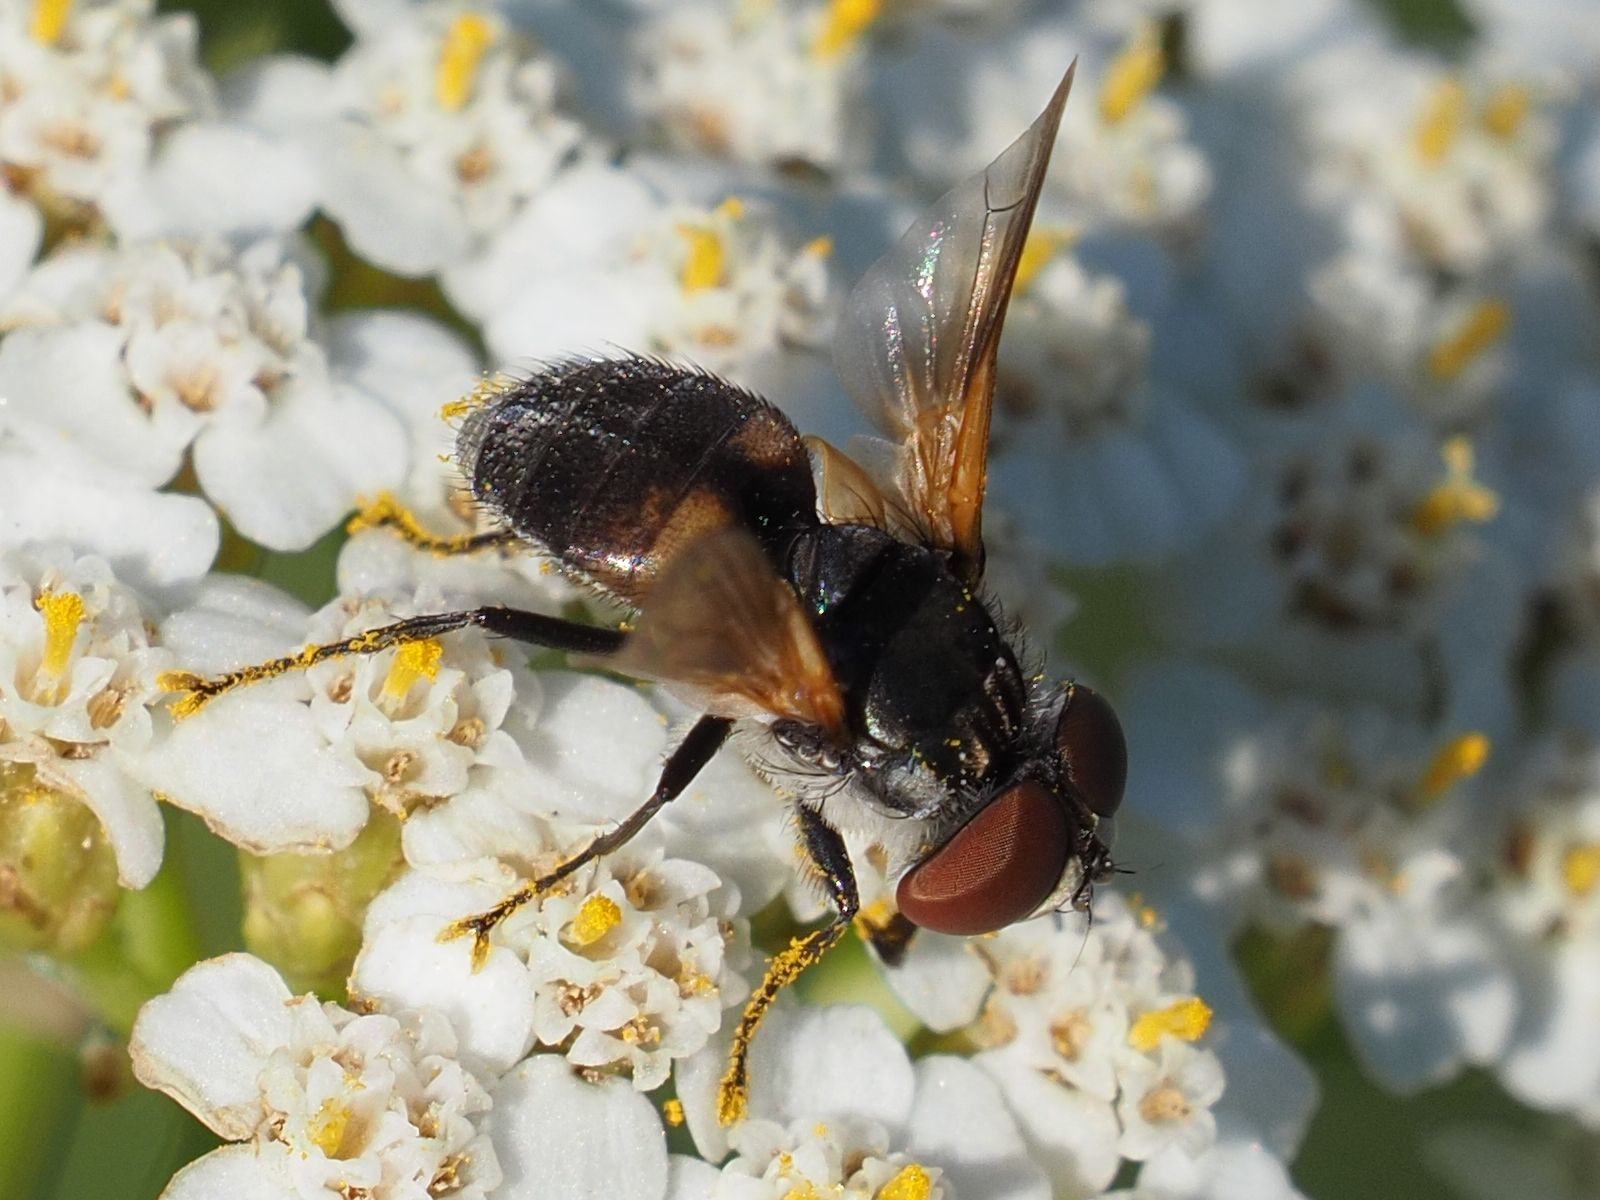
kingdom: Animalia
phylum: Arthropoda
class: Insecta
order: Diptera
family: Tachinidae
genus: Elomya
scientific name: Elomya lateralis
